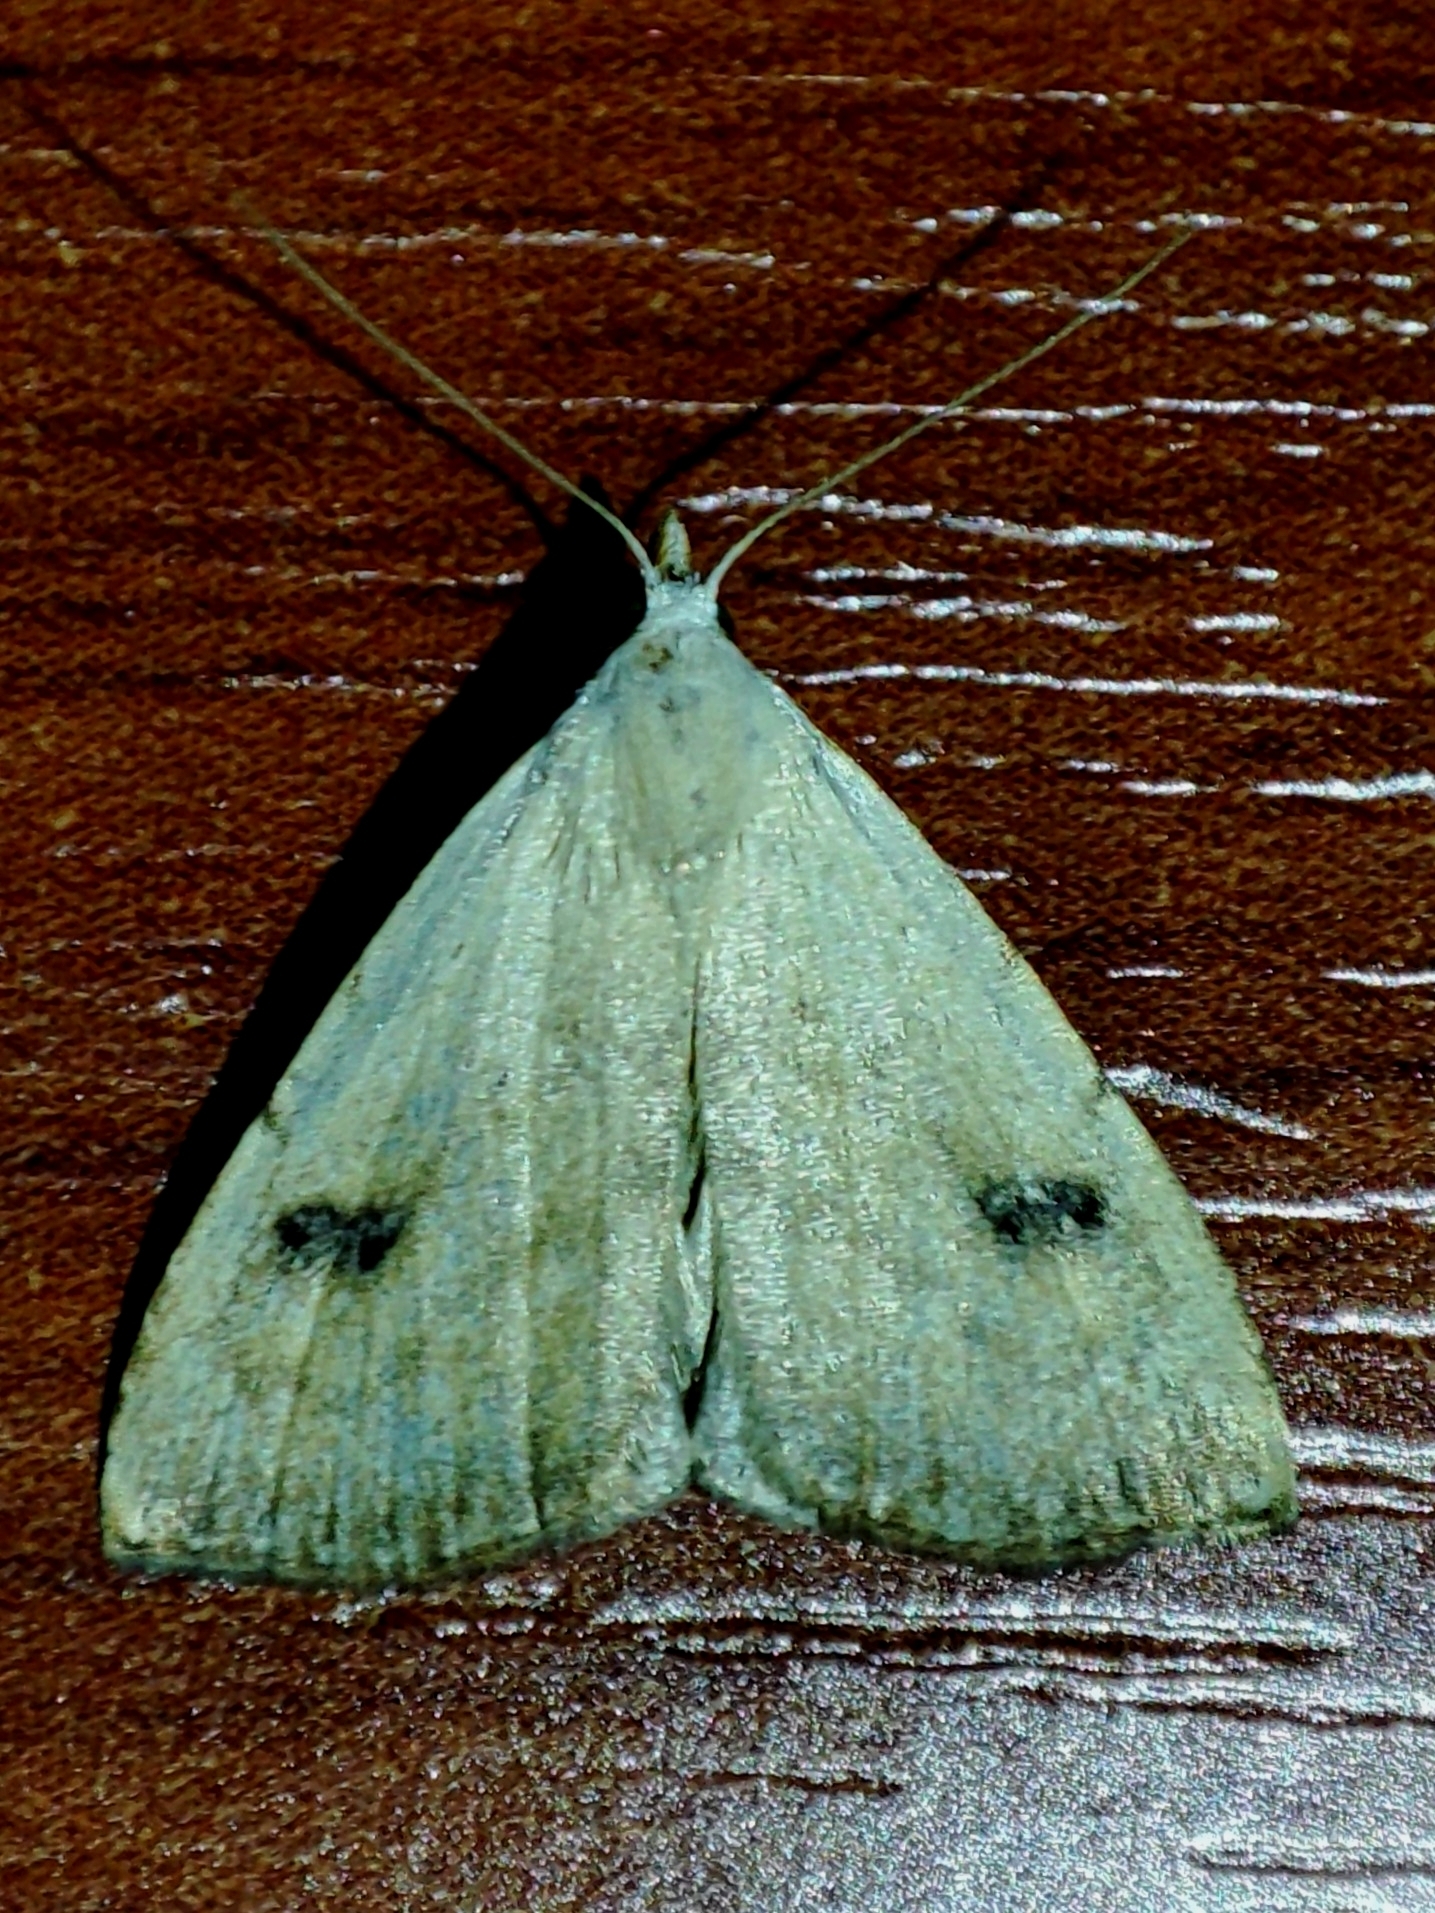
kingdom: Animalia
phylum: Arthropoda
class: Insecta
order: Lepidoptera
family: Erebidae
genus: Rivula
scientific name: Rivula sericealis
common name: Straw dot
